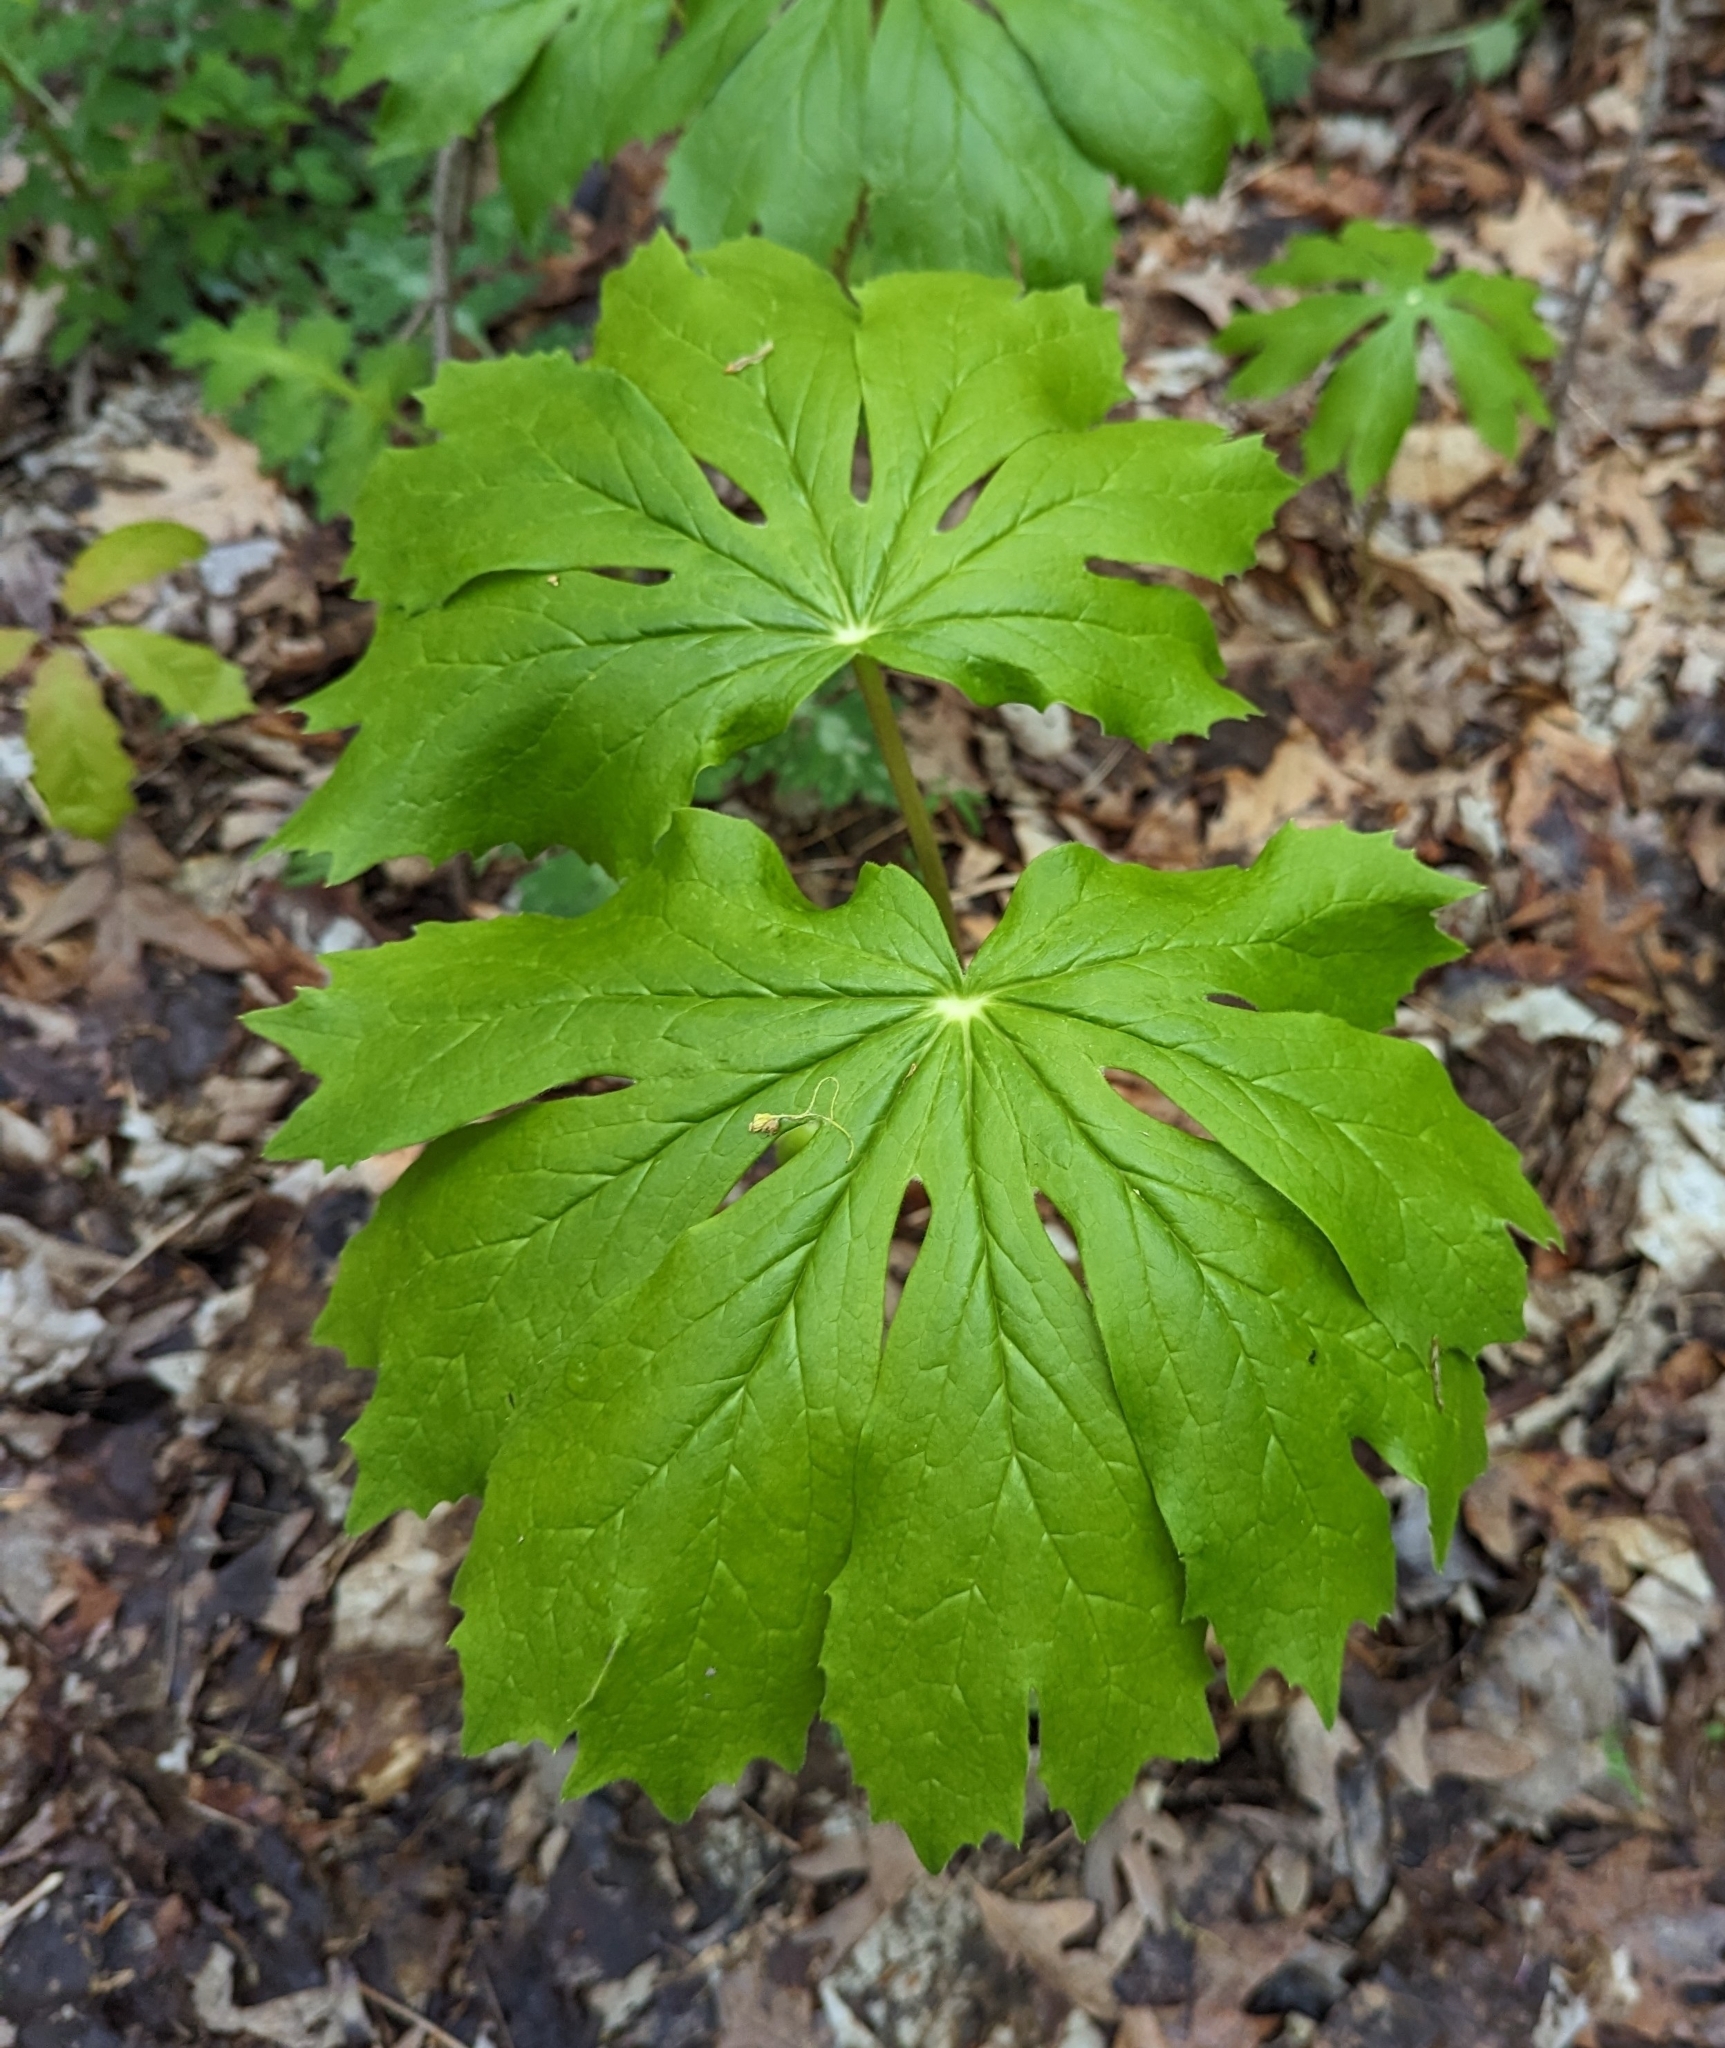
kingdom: Plantae
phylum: Tracheophyta
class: Magnoliopsida
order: Ranunculales
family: Berberidaceae
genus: Podophyllum
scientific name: Podophyllum peltatum
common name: Wild mandrake
